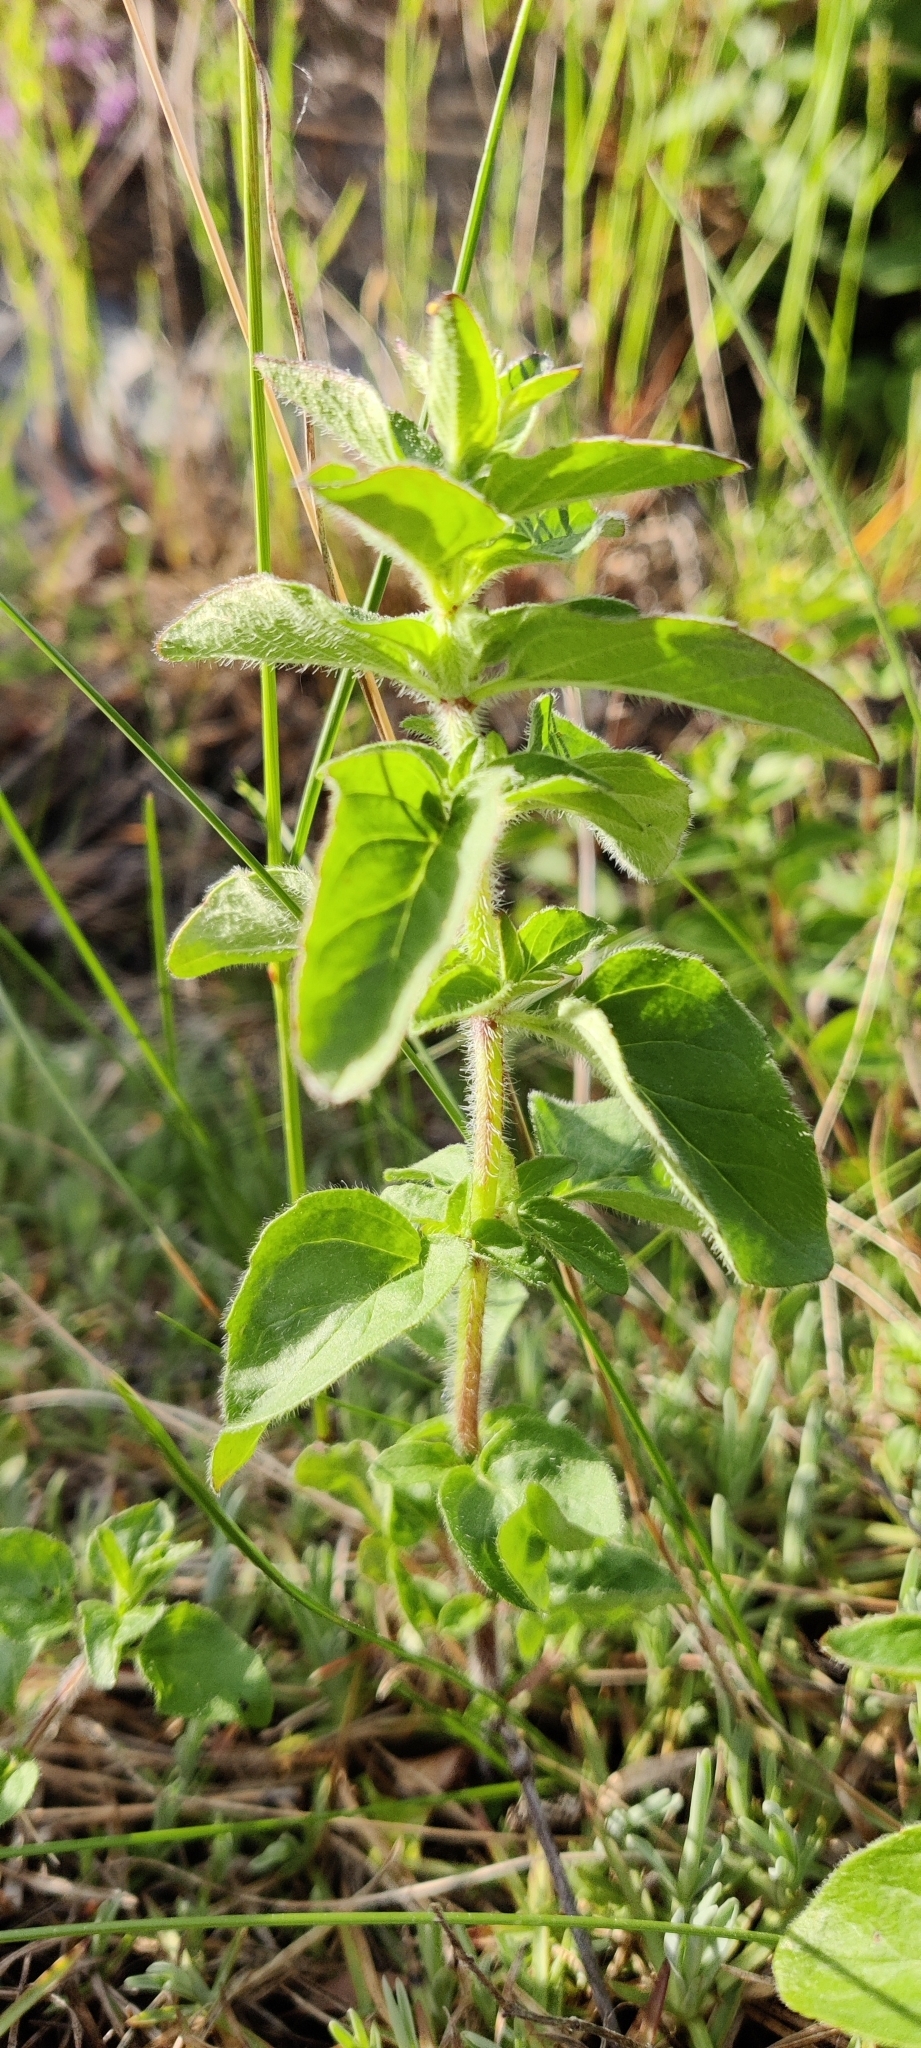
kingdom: Plantae
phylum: Tracheophyta
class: Magnoliopsida
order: Lamiales
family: Lamiaceae
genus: Origanum
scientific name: Origanum vulgare
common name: Wild marjoram
